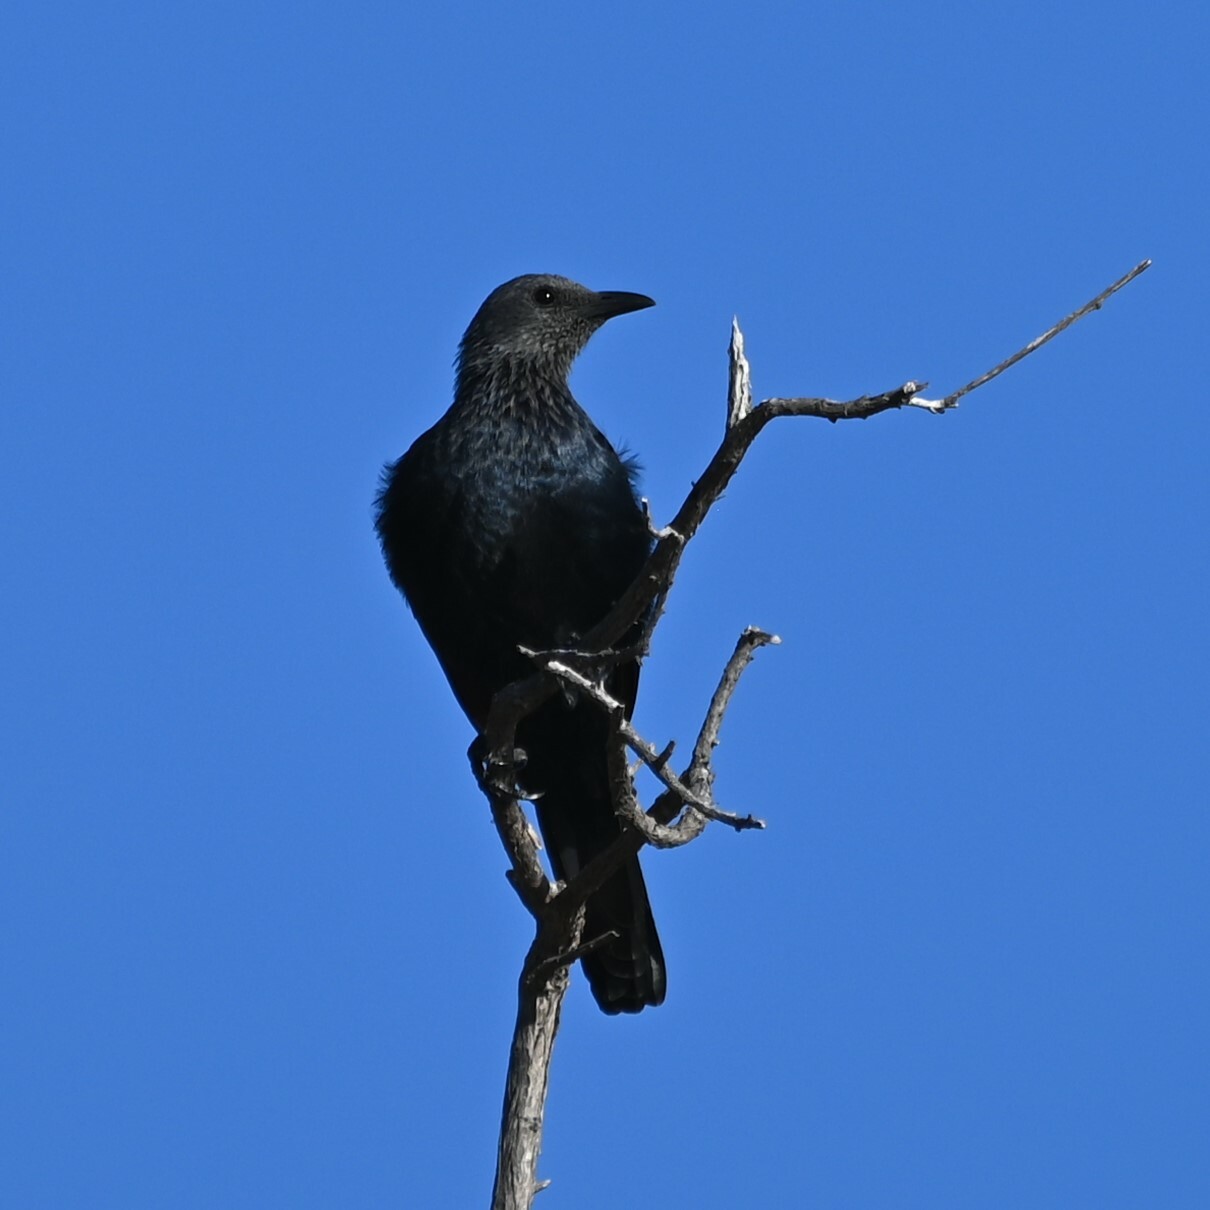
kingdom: Animalia
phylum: Chordata
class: Aves
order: Passeriformes
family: Sturnidae
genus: Onychognathus
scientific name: Onychognathus morio
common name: Red-winged starling
